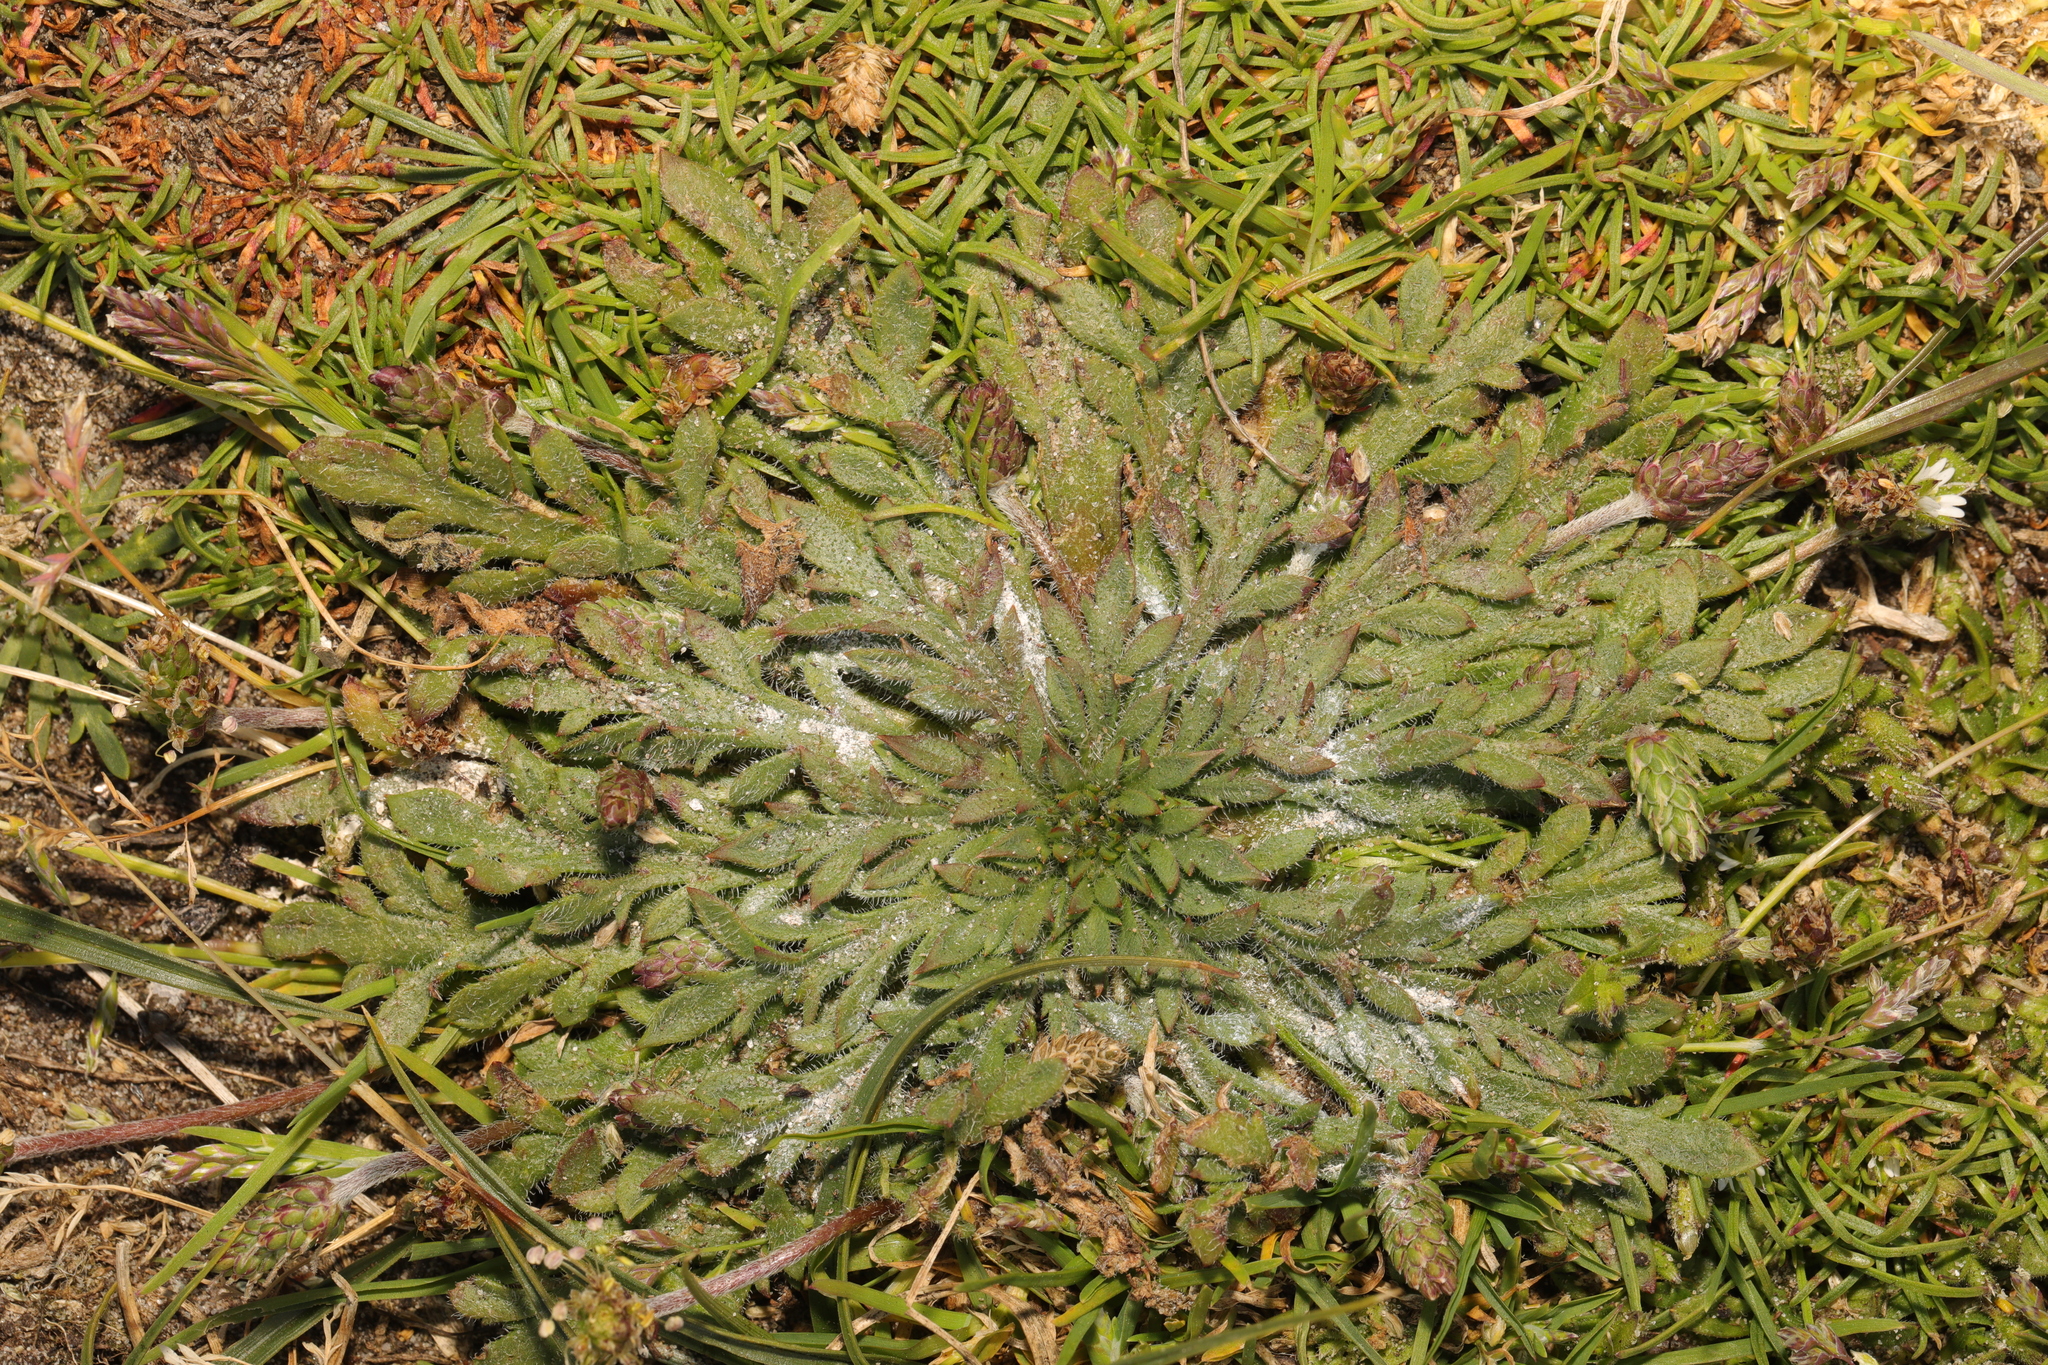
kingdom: Plantae
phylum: Tracheophyta
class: Magnoliopsida
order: Lamiales
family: Plantaginaceae
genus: Plantago
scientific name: Plantago coronopus
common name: Buck's-horn plantain
